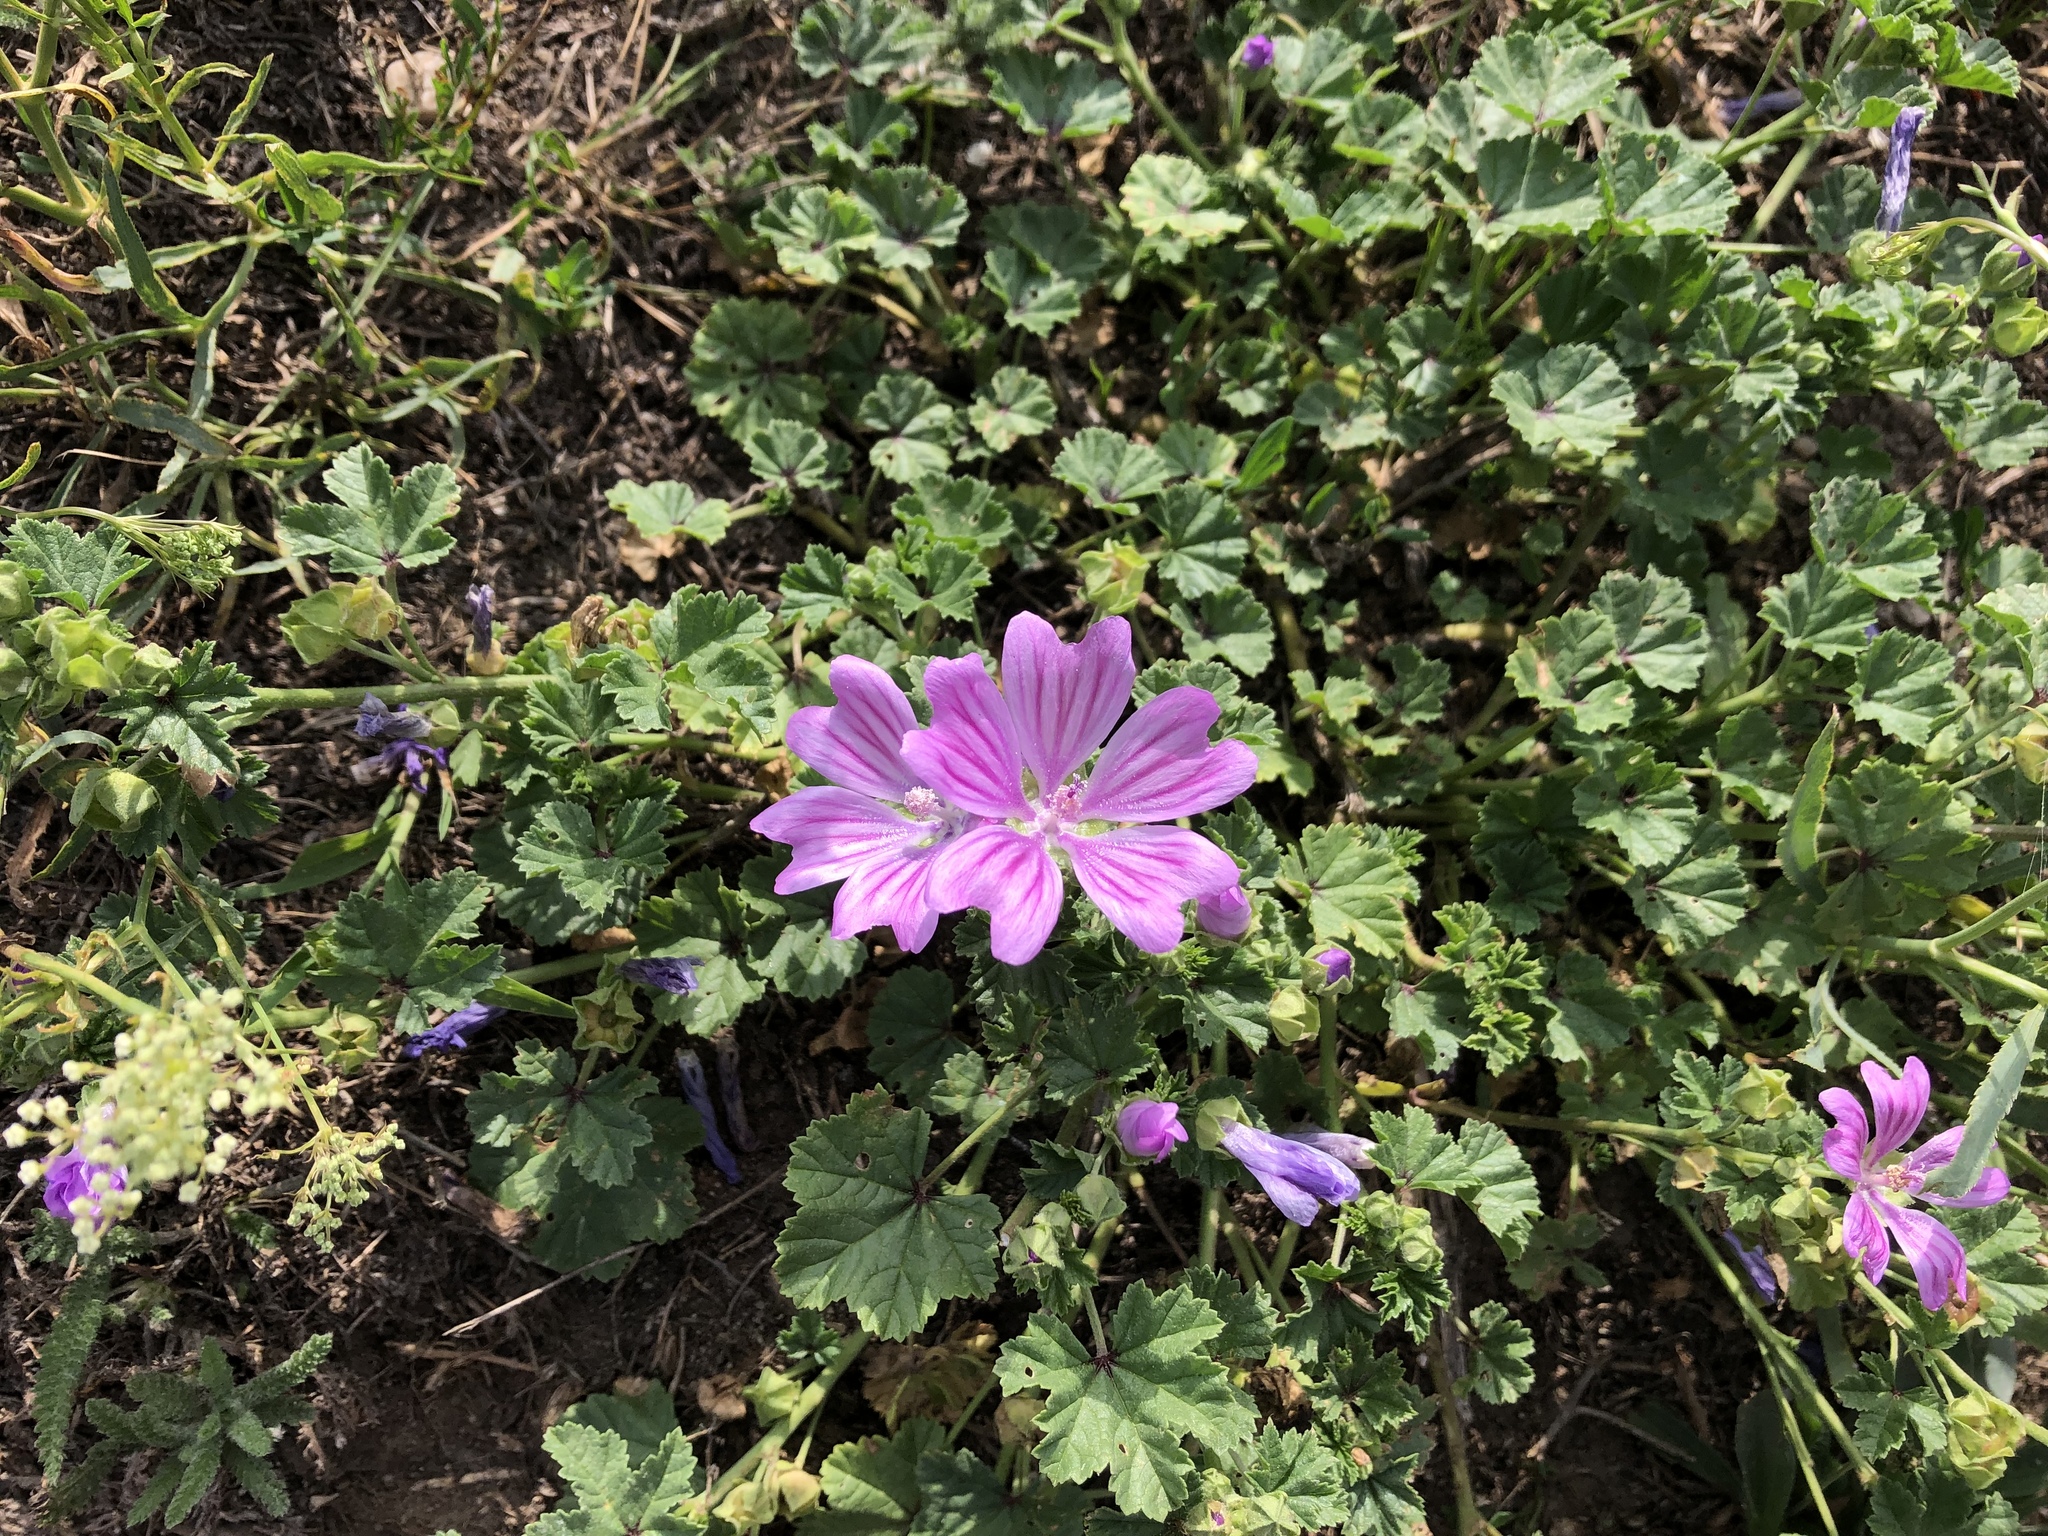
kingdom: Plantae
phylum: Tracheophyta
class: Magnoliopsida
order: Malvales
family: Malvaceae
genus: Malva
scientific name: Malva sylvestris
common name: Common mallow
